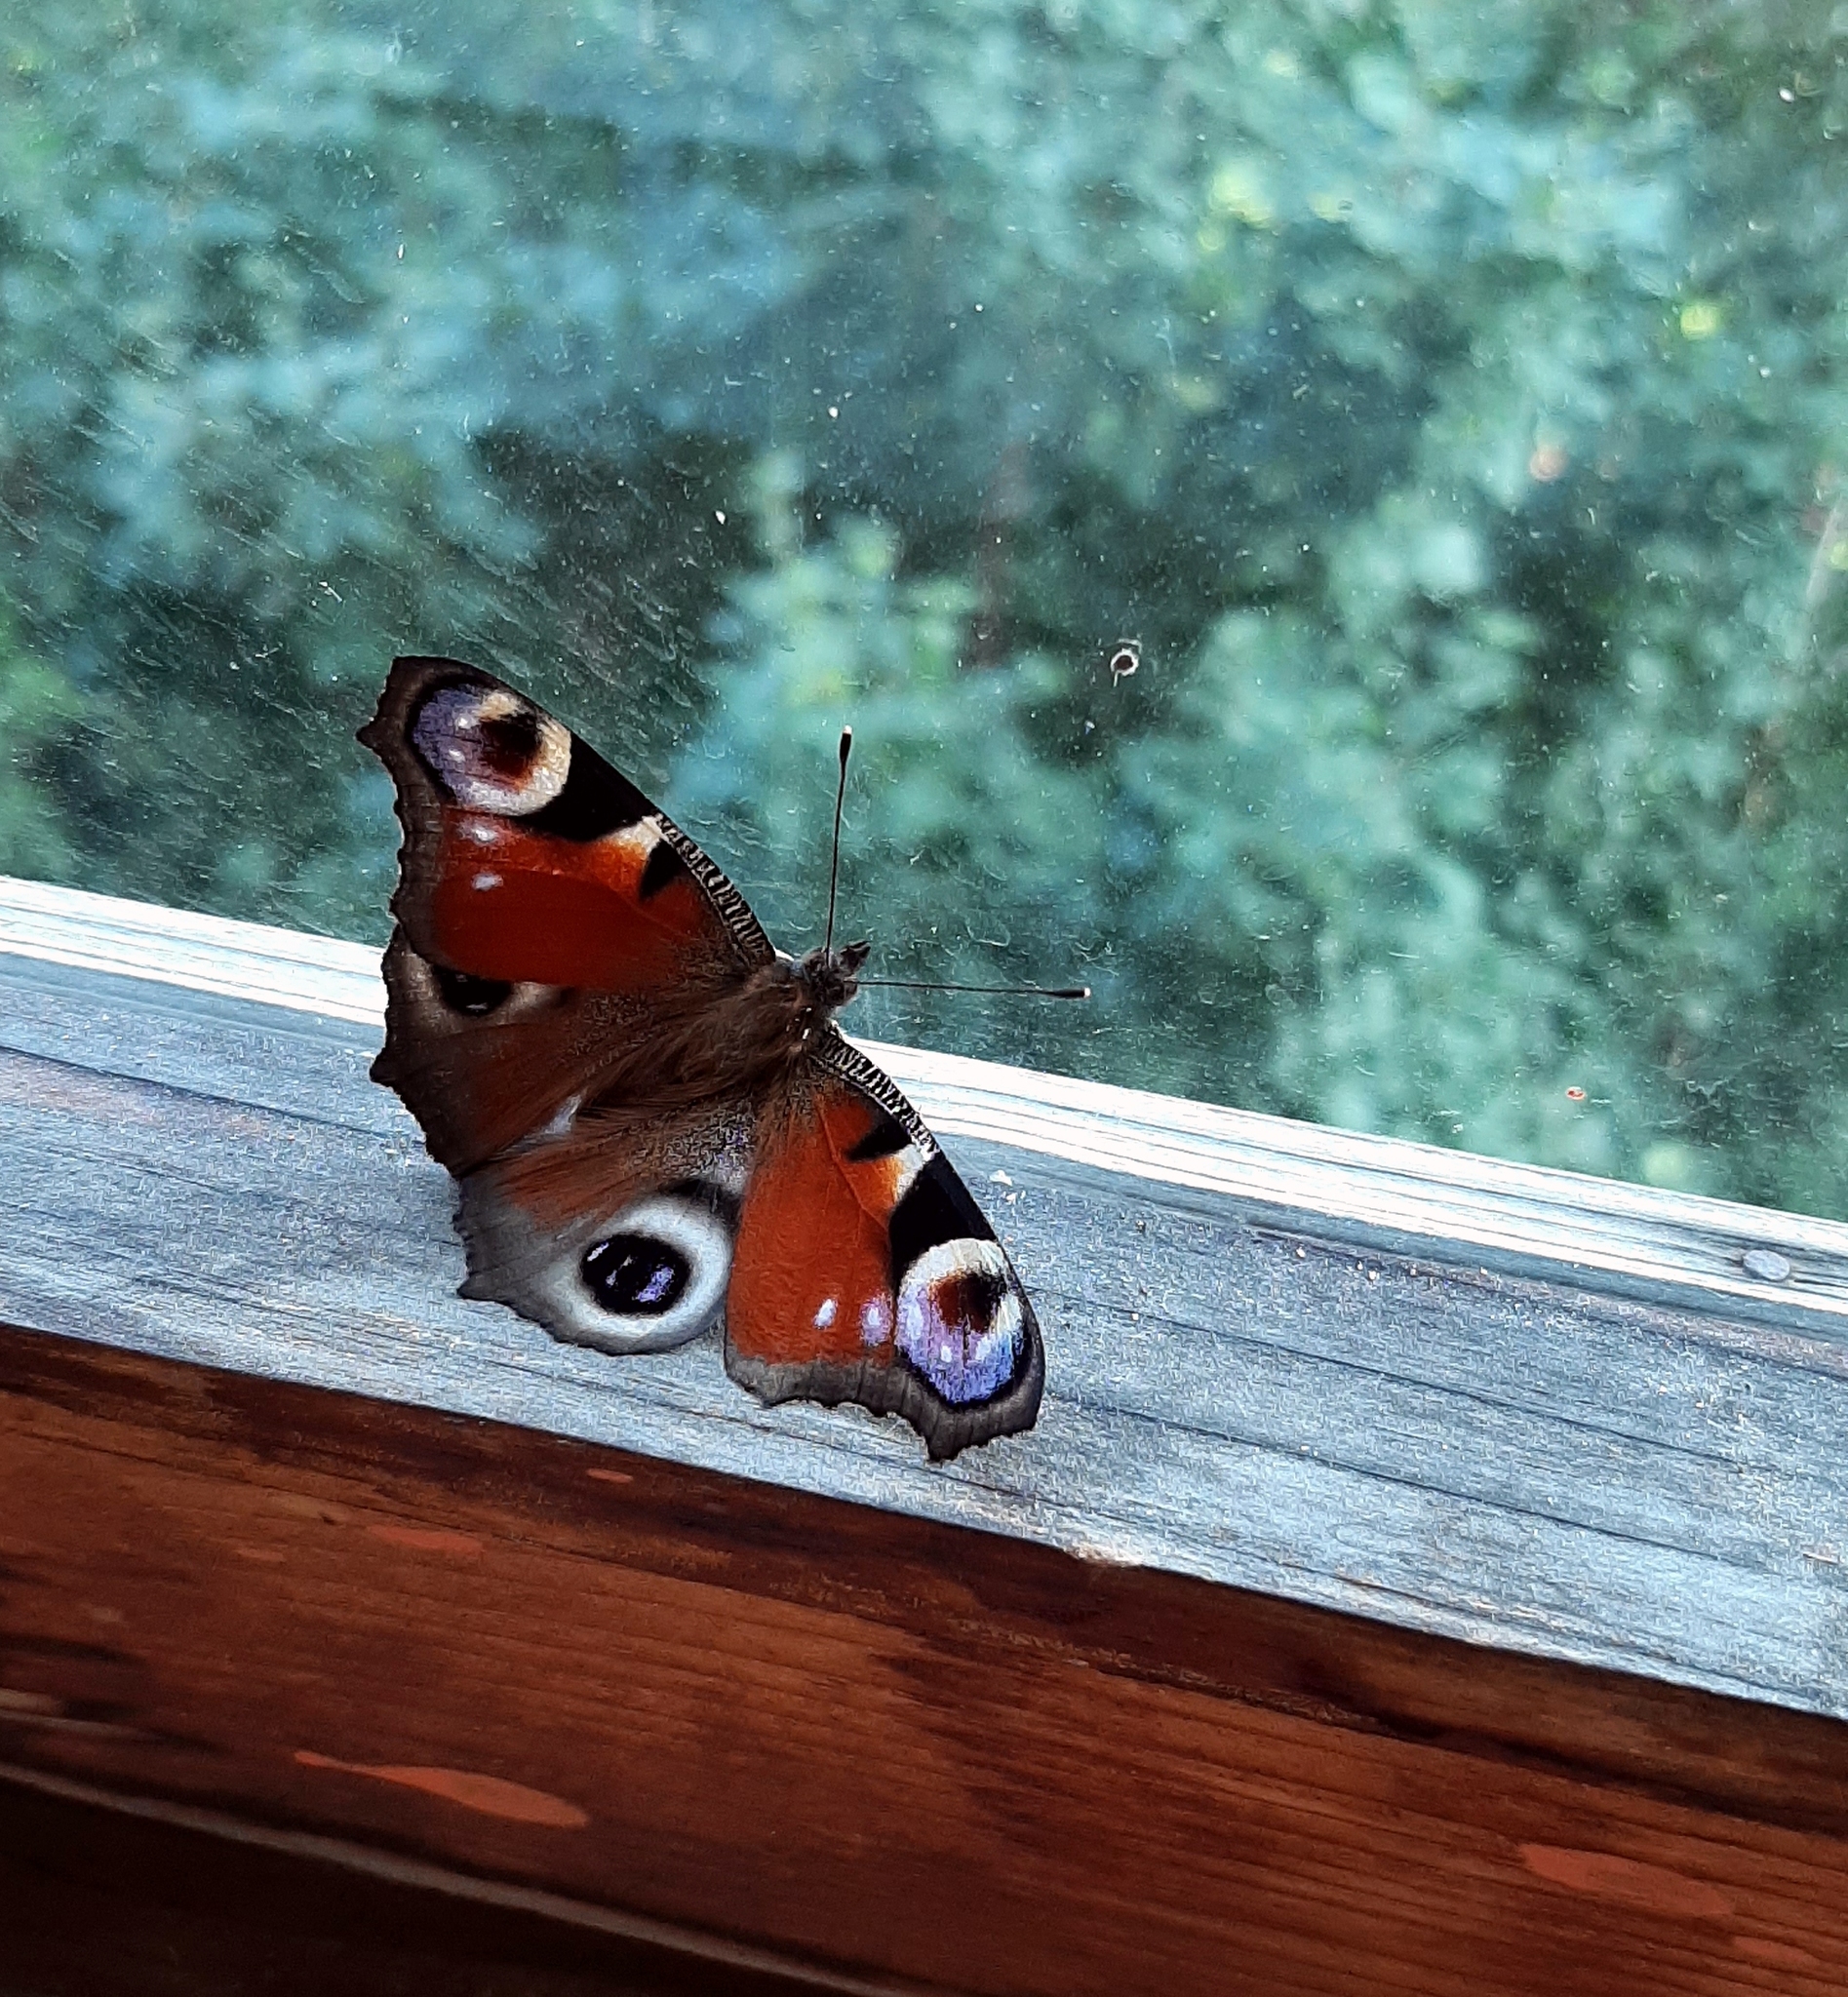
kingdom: Animalia
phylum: Arthropoda
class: Insecta
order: Lepidoptera
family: Nymphalidae
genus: Aglais
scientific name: Aglais io
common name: Peacock
